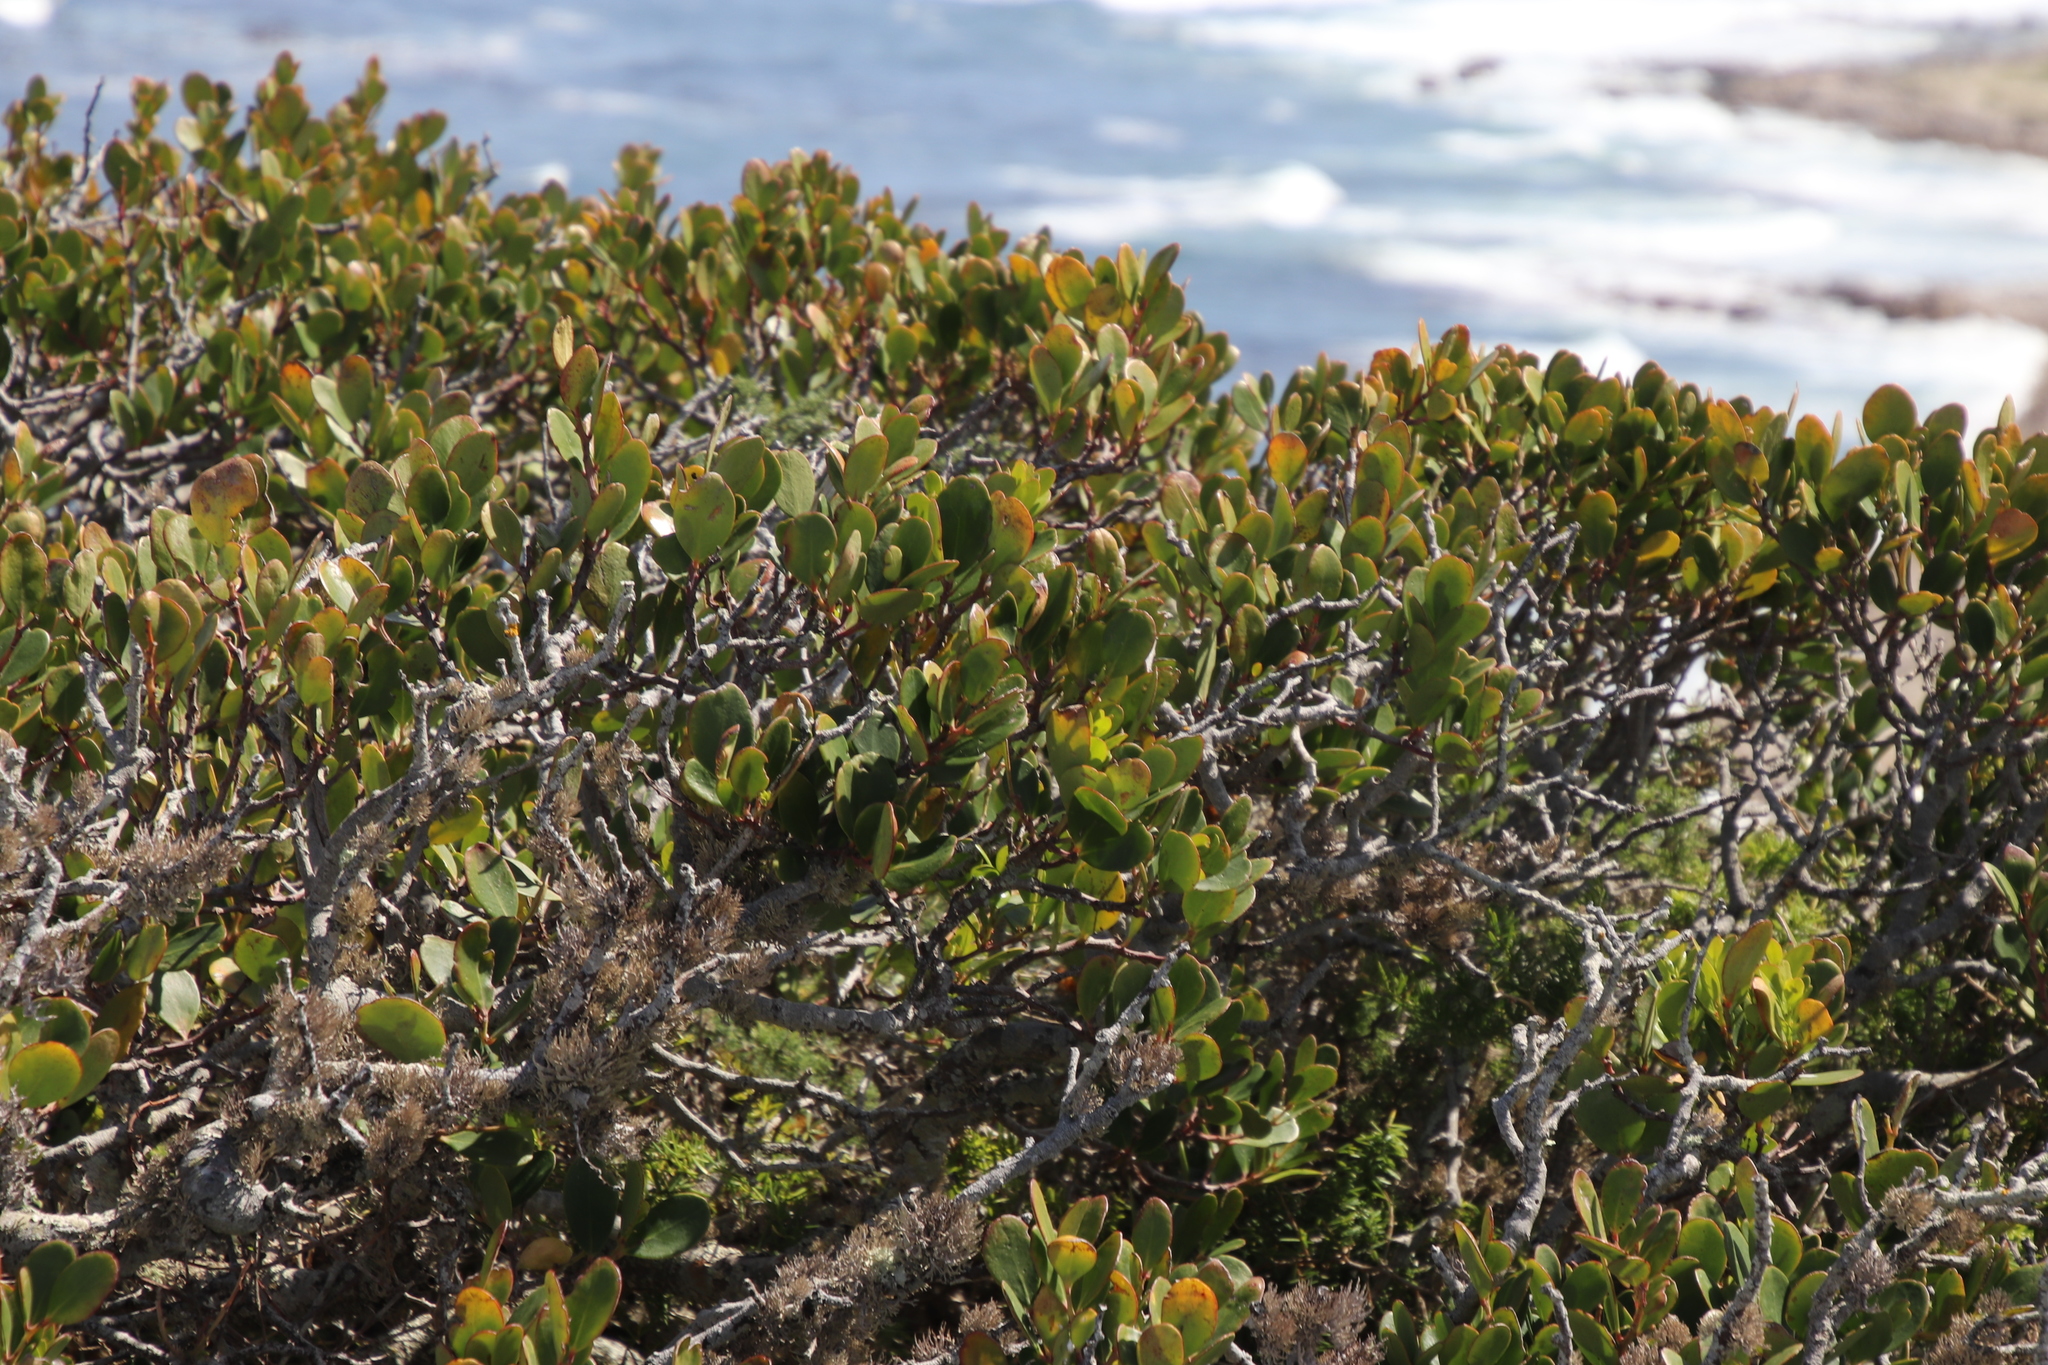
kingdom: Plantae
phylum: Tracheophyta
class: Magnoliopsida
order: Ericales
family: Ebenaceae
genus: Euclea
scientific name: Euclea racemosa
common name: Dune guarri
